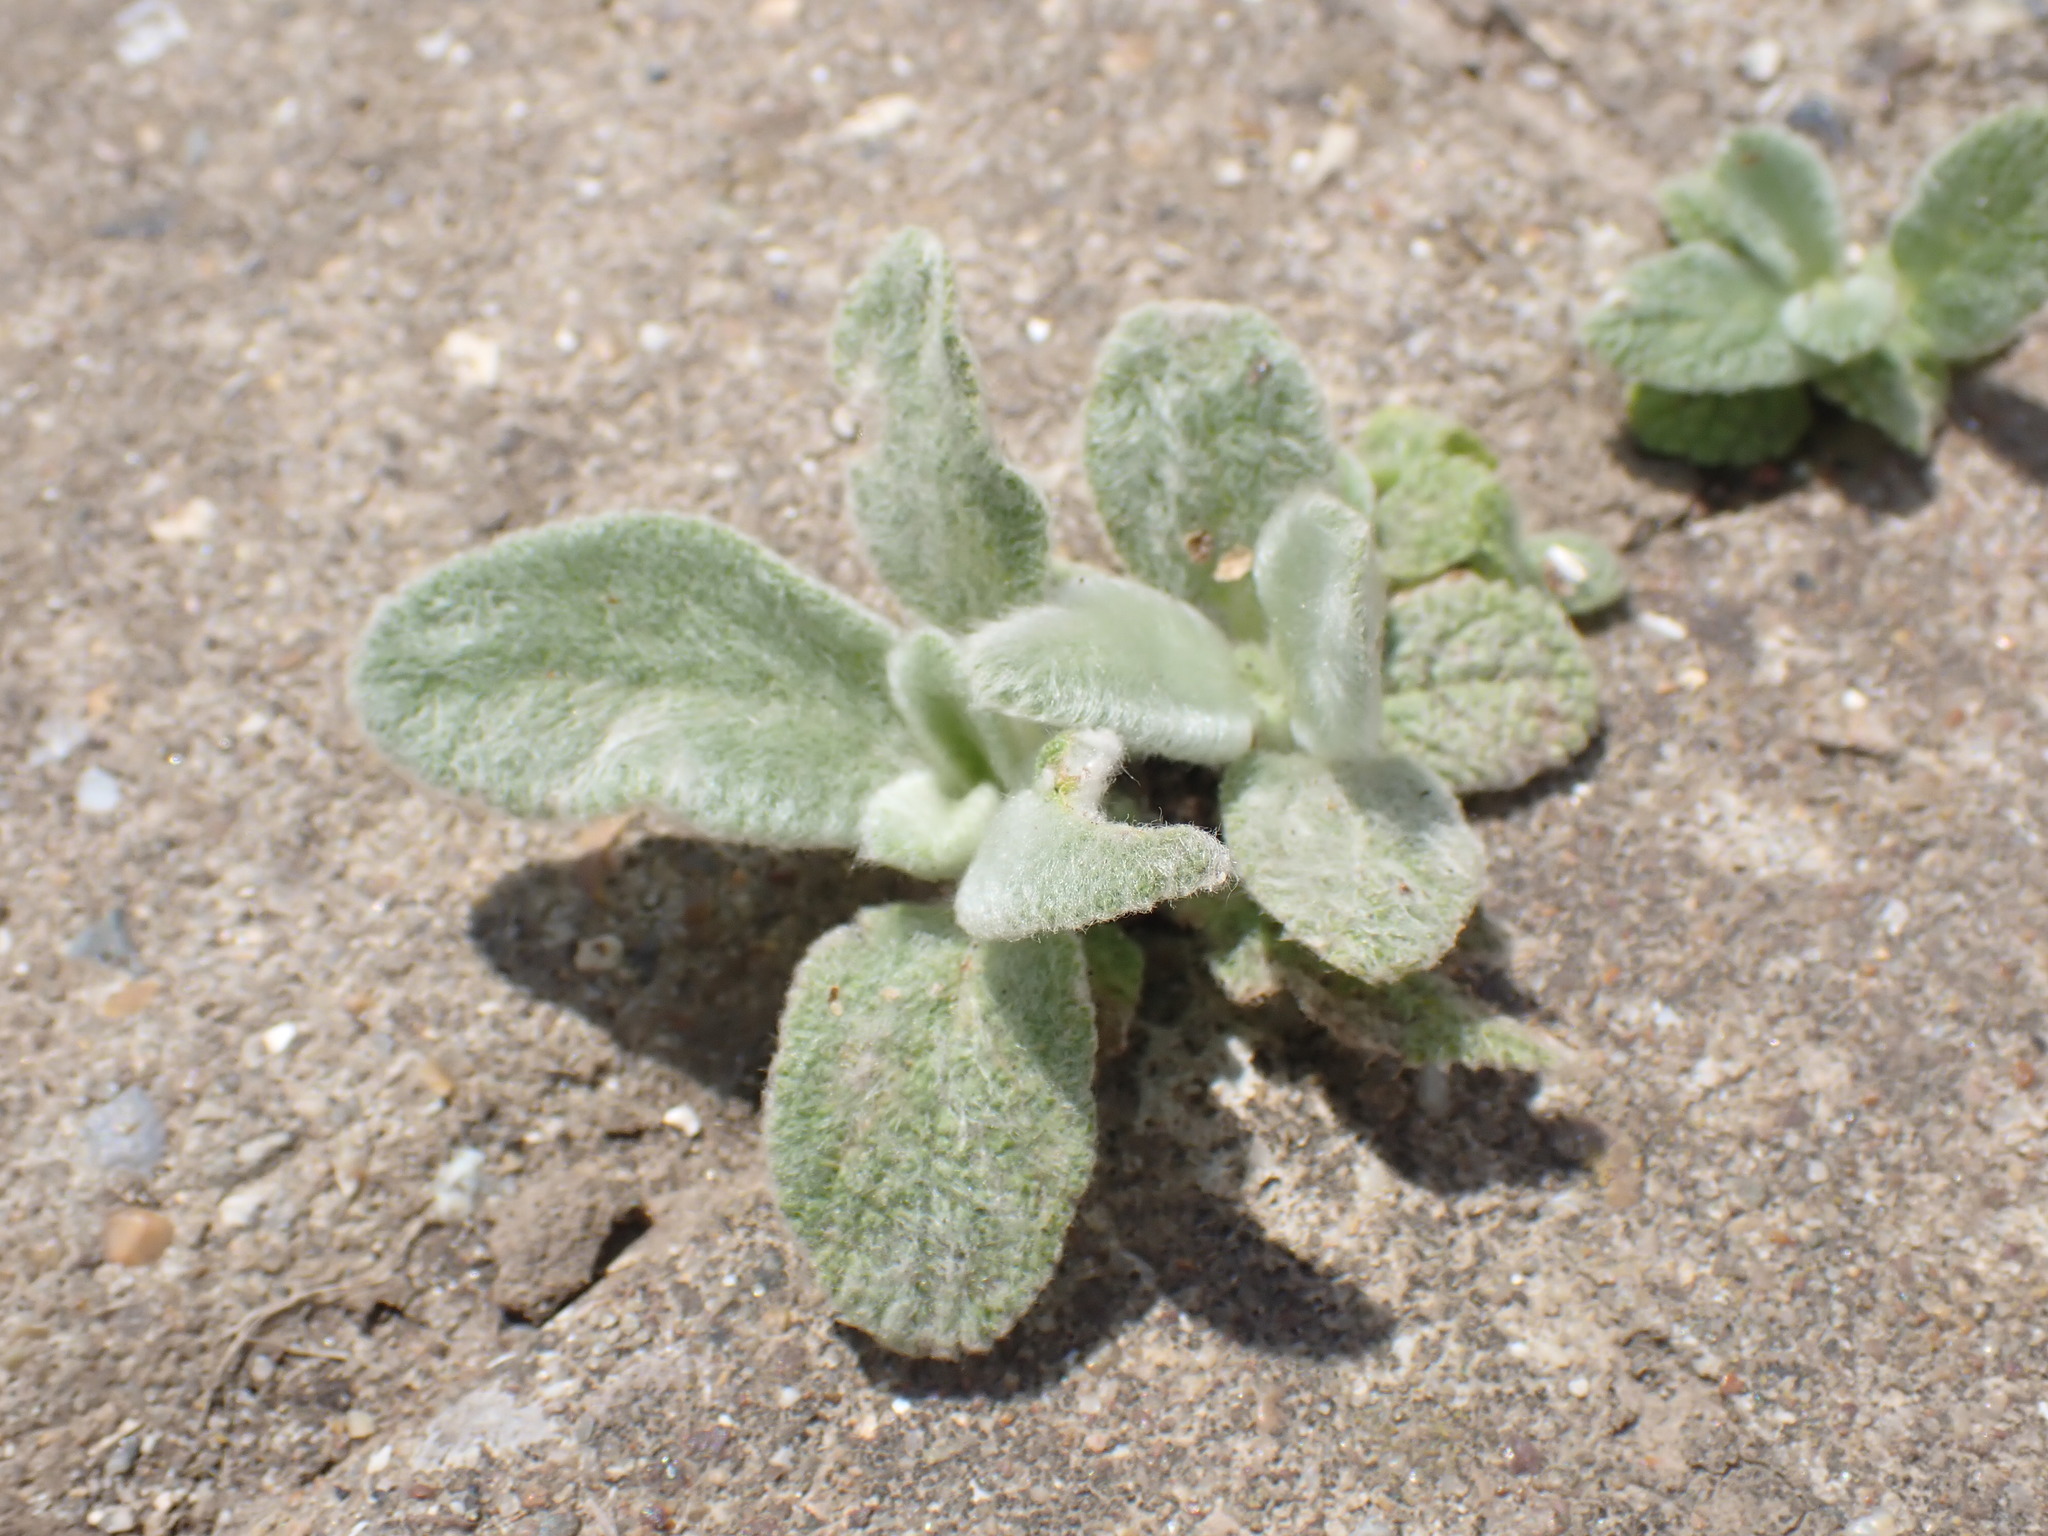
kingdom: Plantae
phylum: Tracheophyta
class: Magnoliopsida
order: Lamiales
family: Lamiaceae
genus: Stachys
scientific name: Stachys byzantina
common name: Lamb's-ear
